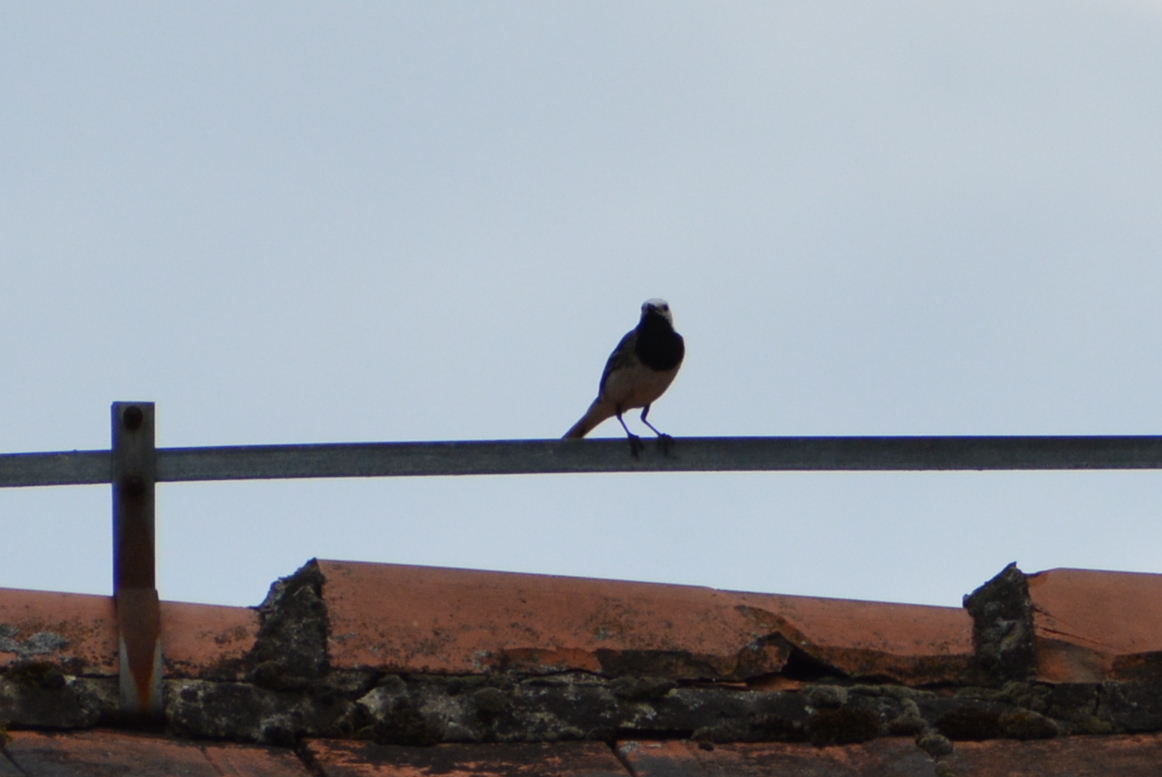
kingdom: Animalia
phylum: Chordata
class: Aves
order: Passeriformes
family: Motacillidae
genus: Motacilla
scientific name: Motacilla alba
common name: White wagtail
